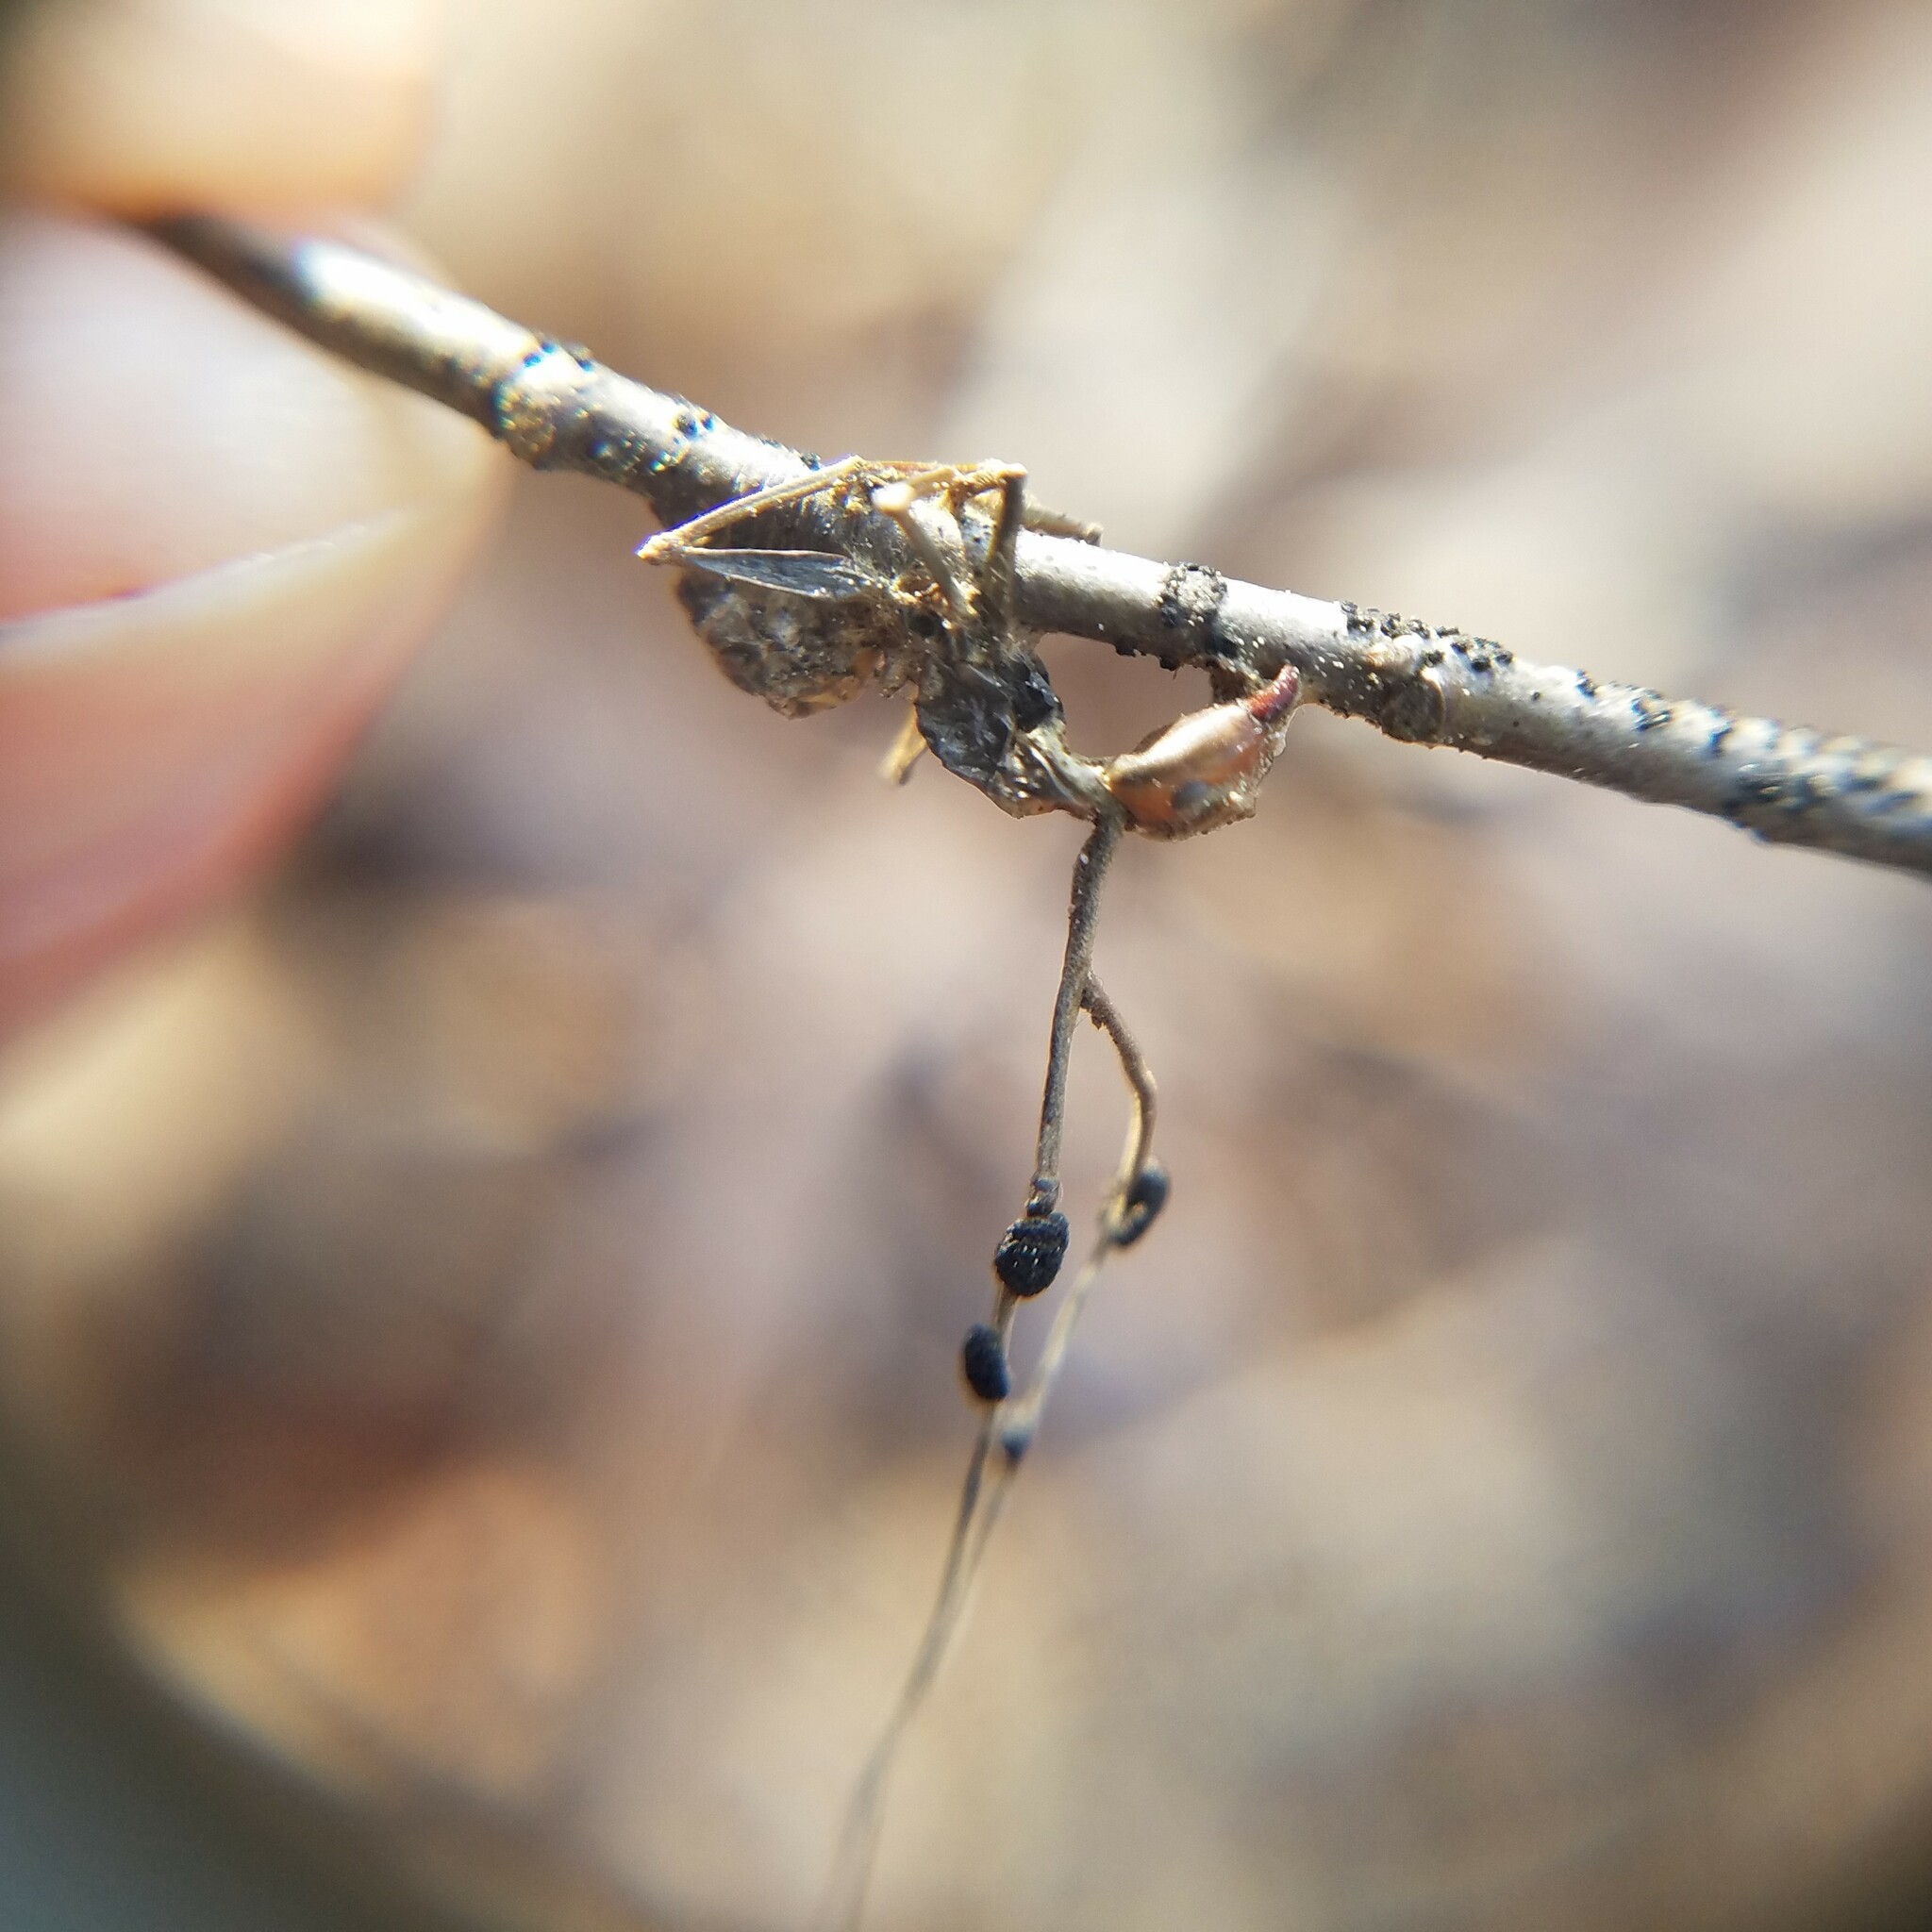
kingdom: Fungi
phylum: Ascomycota
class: Sordariomycetes
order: Hypocreales
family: Ophiocordycipitaceae
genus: Ophiocordyceps
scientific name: Ophiocordyceps kimflemingiae
